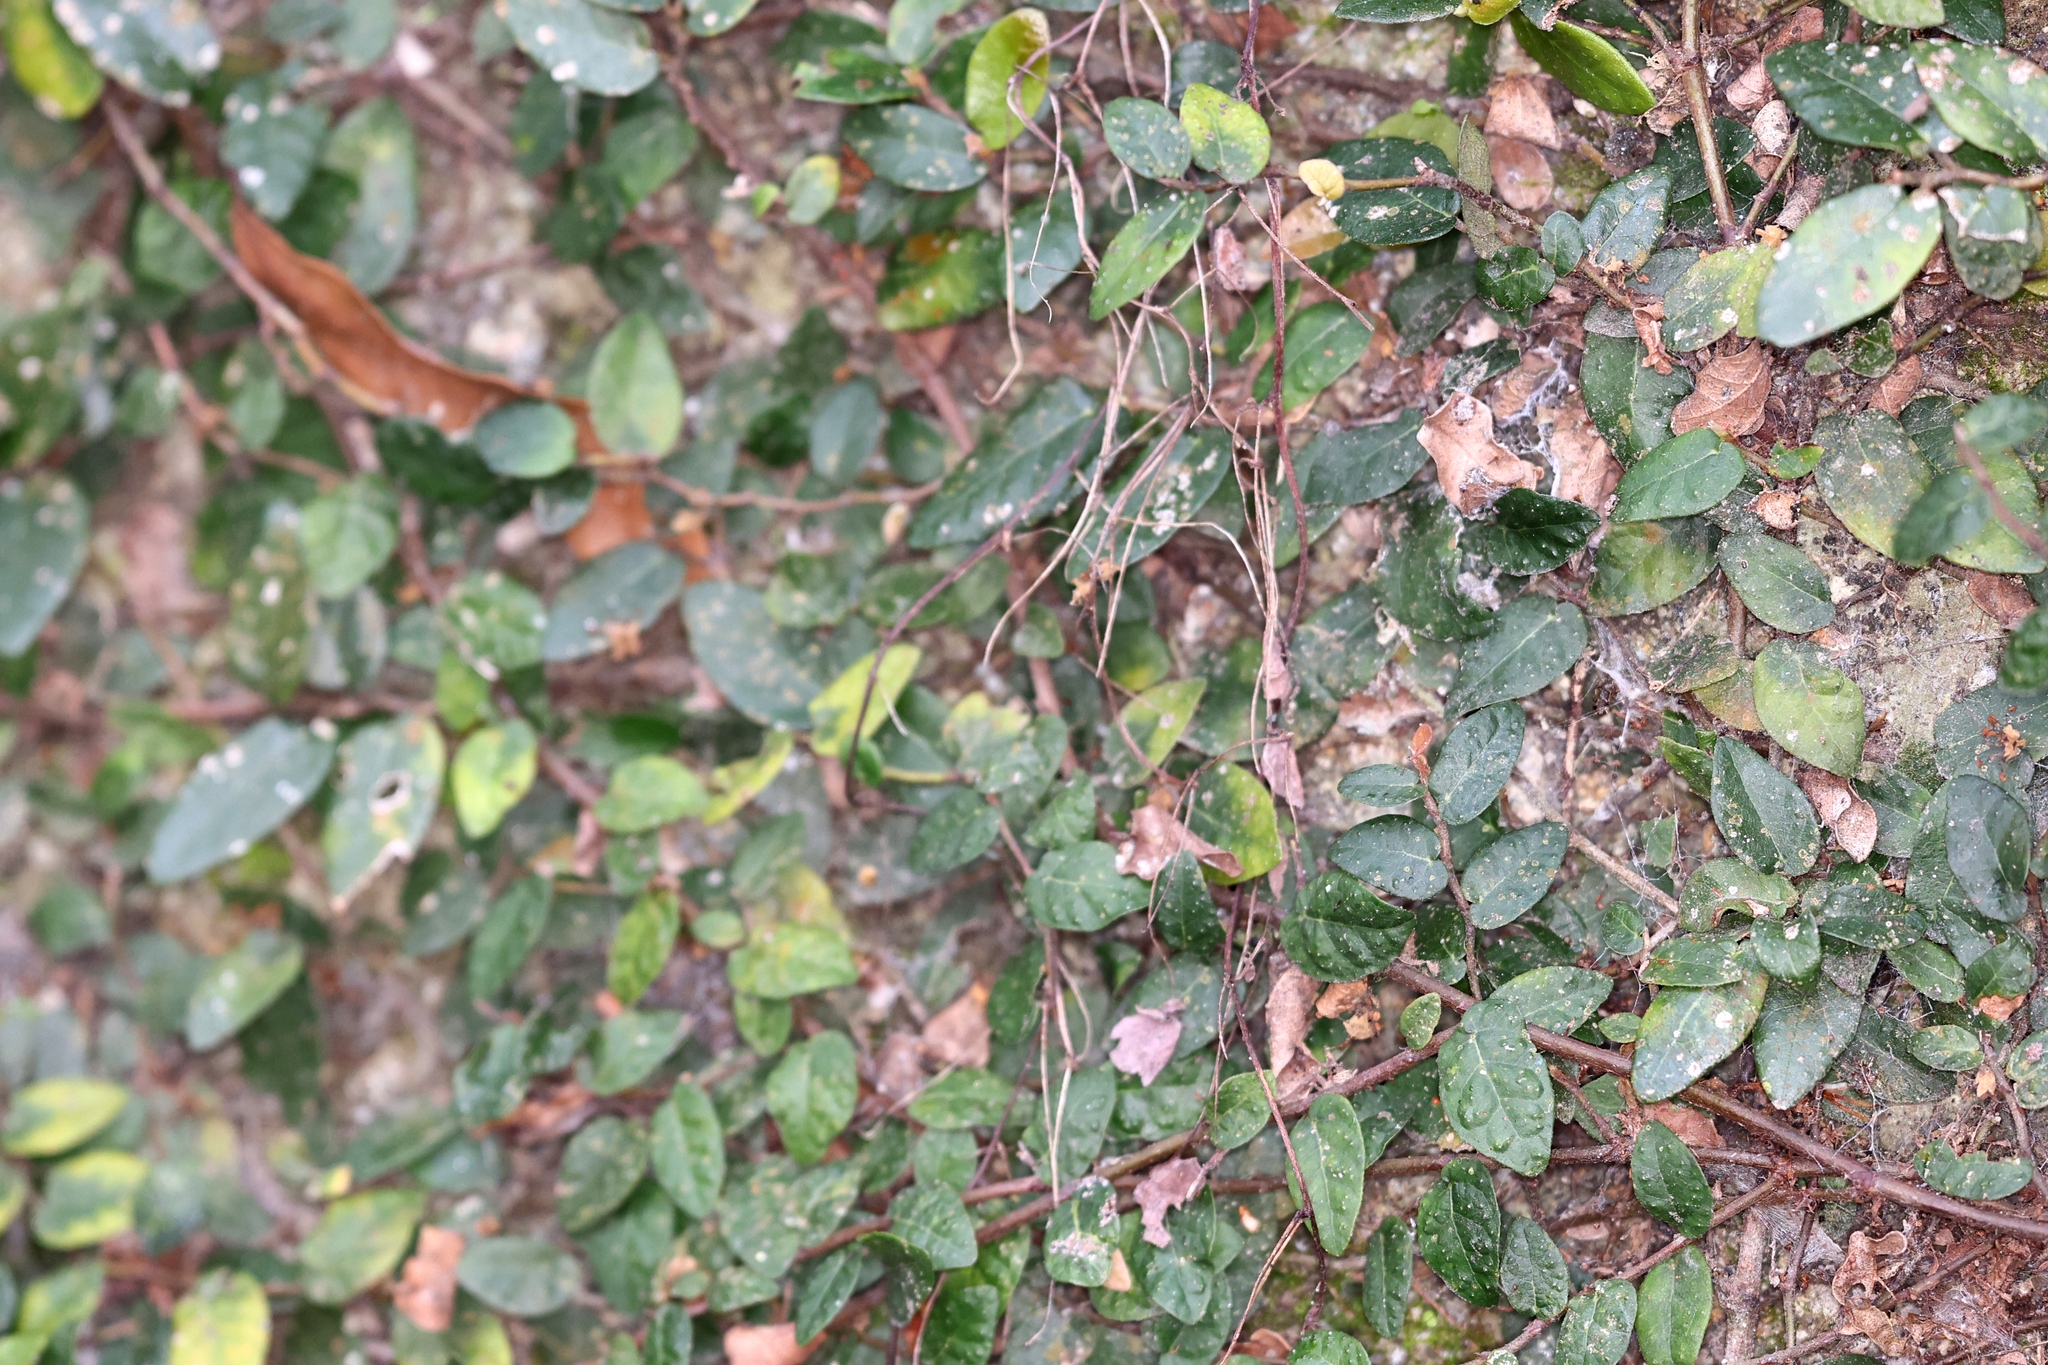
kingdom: Plantae
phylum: Tracheophyta
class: Magnoliopsida
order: Rosales
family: Moraceae
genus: Ficus
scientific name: Ficus pumila
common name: Climbingfig
